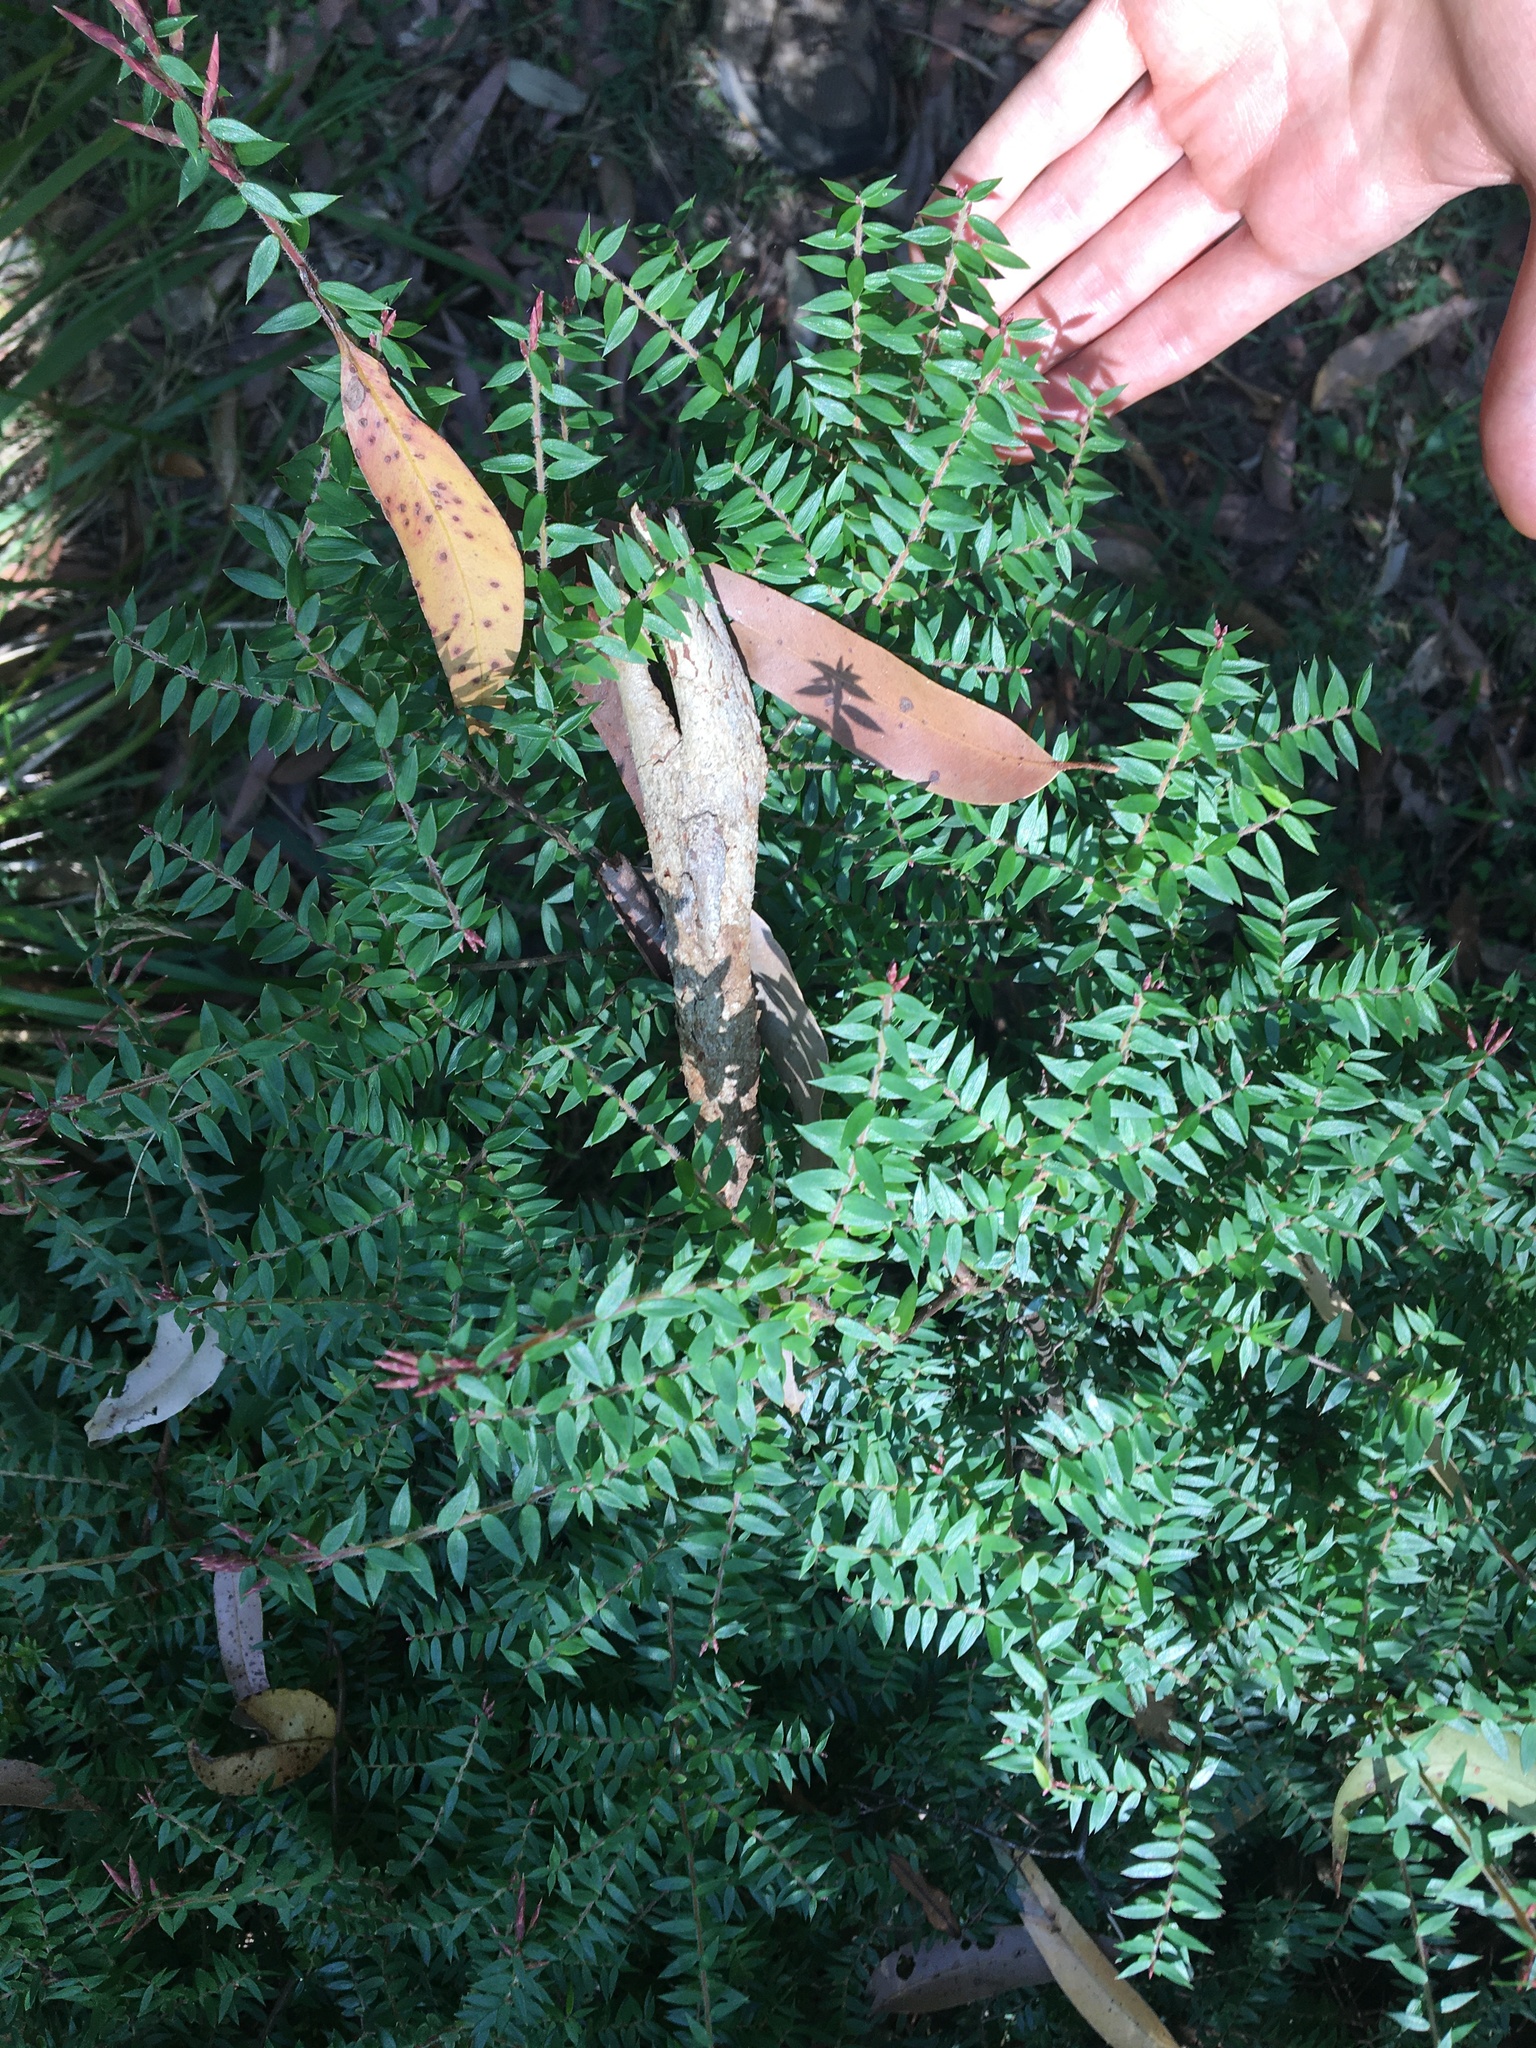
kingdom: Plantae
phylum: Tracheophyta
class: Magnoliopsida
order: Ericales
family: Ericaceae
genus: Acrotriche
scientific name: Acrotriche divaricata
